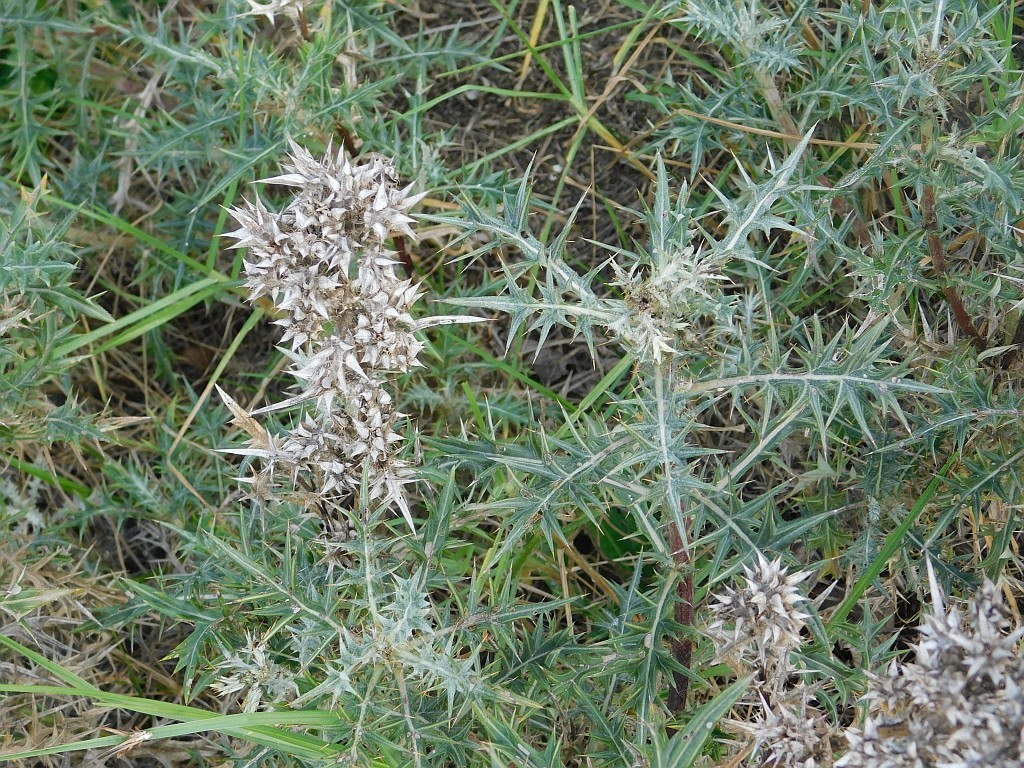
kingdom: Plantae
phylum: Tracheophyta
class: Magnoliopsida
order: Asterales
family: Asteraceae
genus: Berkheya
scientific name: Berkheya rigida
